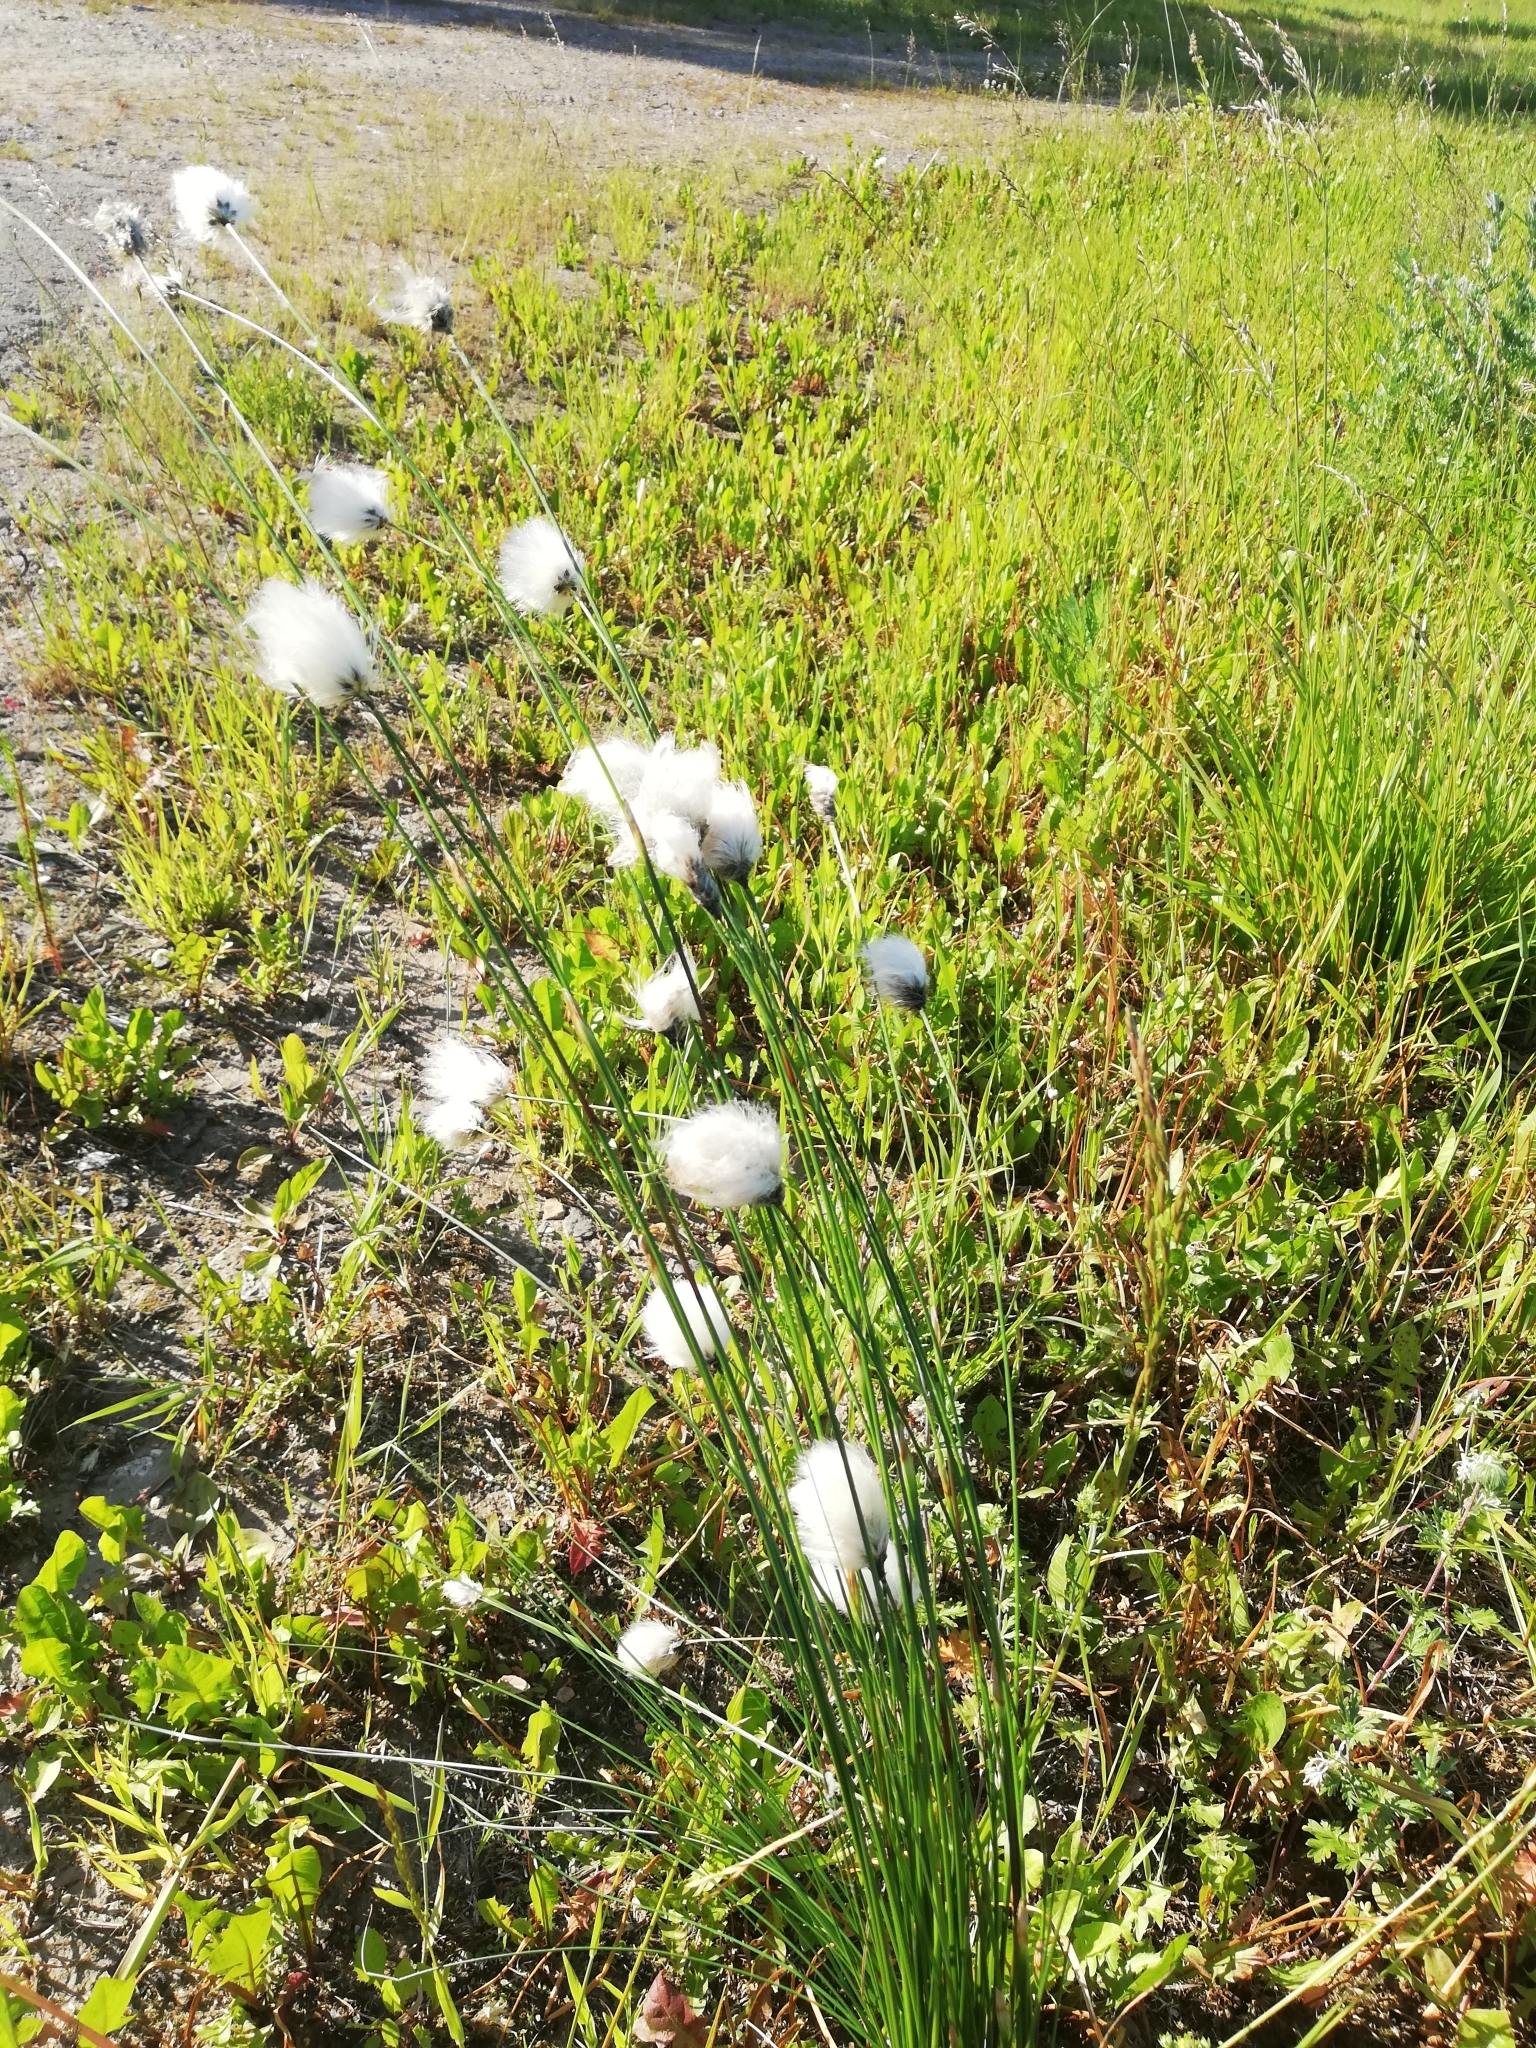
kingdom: Plantae
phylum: Tracheophyta
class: Liliopsida
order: Poales
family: Cyperaceae
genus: Eriophorum
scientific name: Eriophorum vaginatum
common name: Hare's-tail cottongrass
